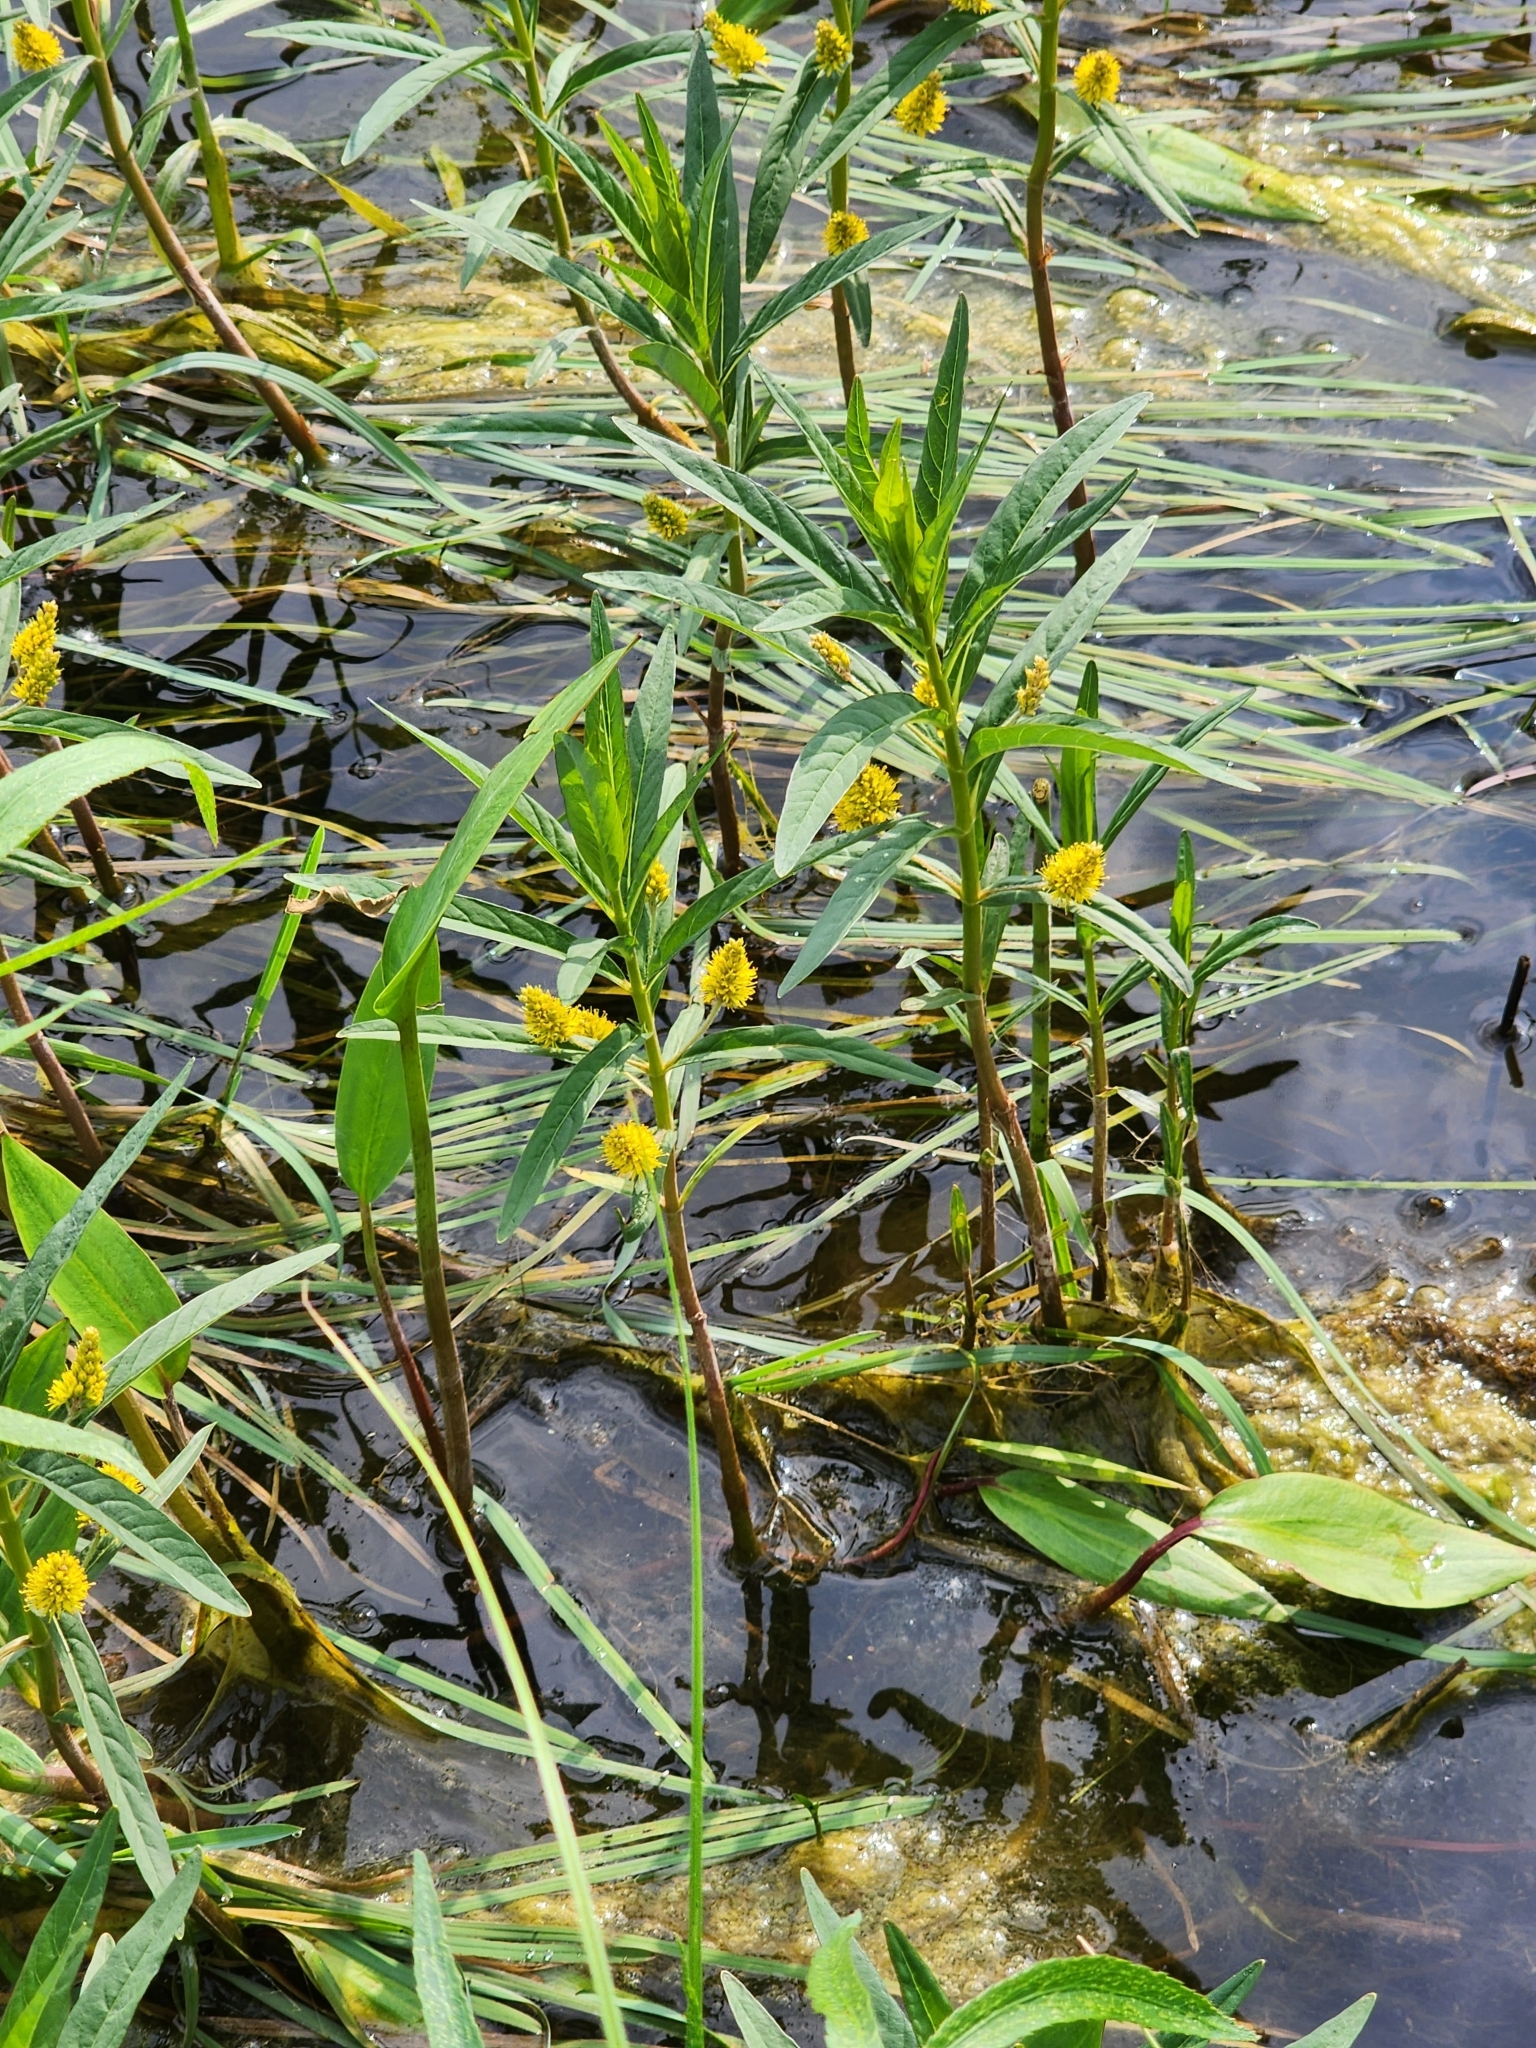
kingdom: Plantae
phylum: Tracheophyta
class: Magnoliopsida
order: Ericales
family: Primulaceae
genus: Lysimachia
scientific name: Lysimachia thyrsiflora
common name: Tufted loosestrife
